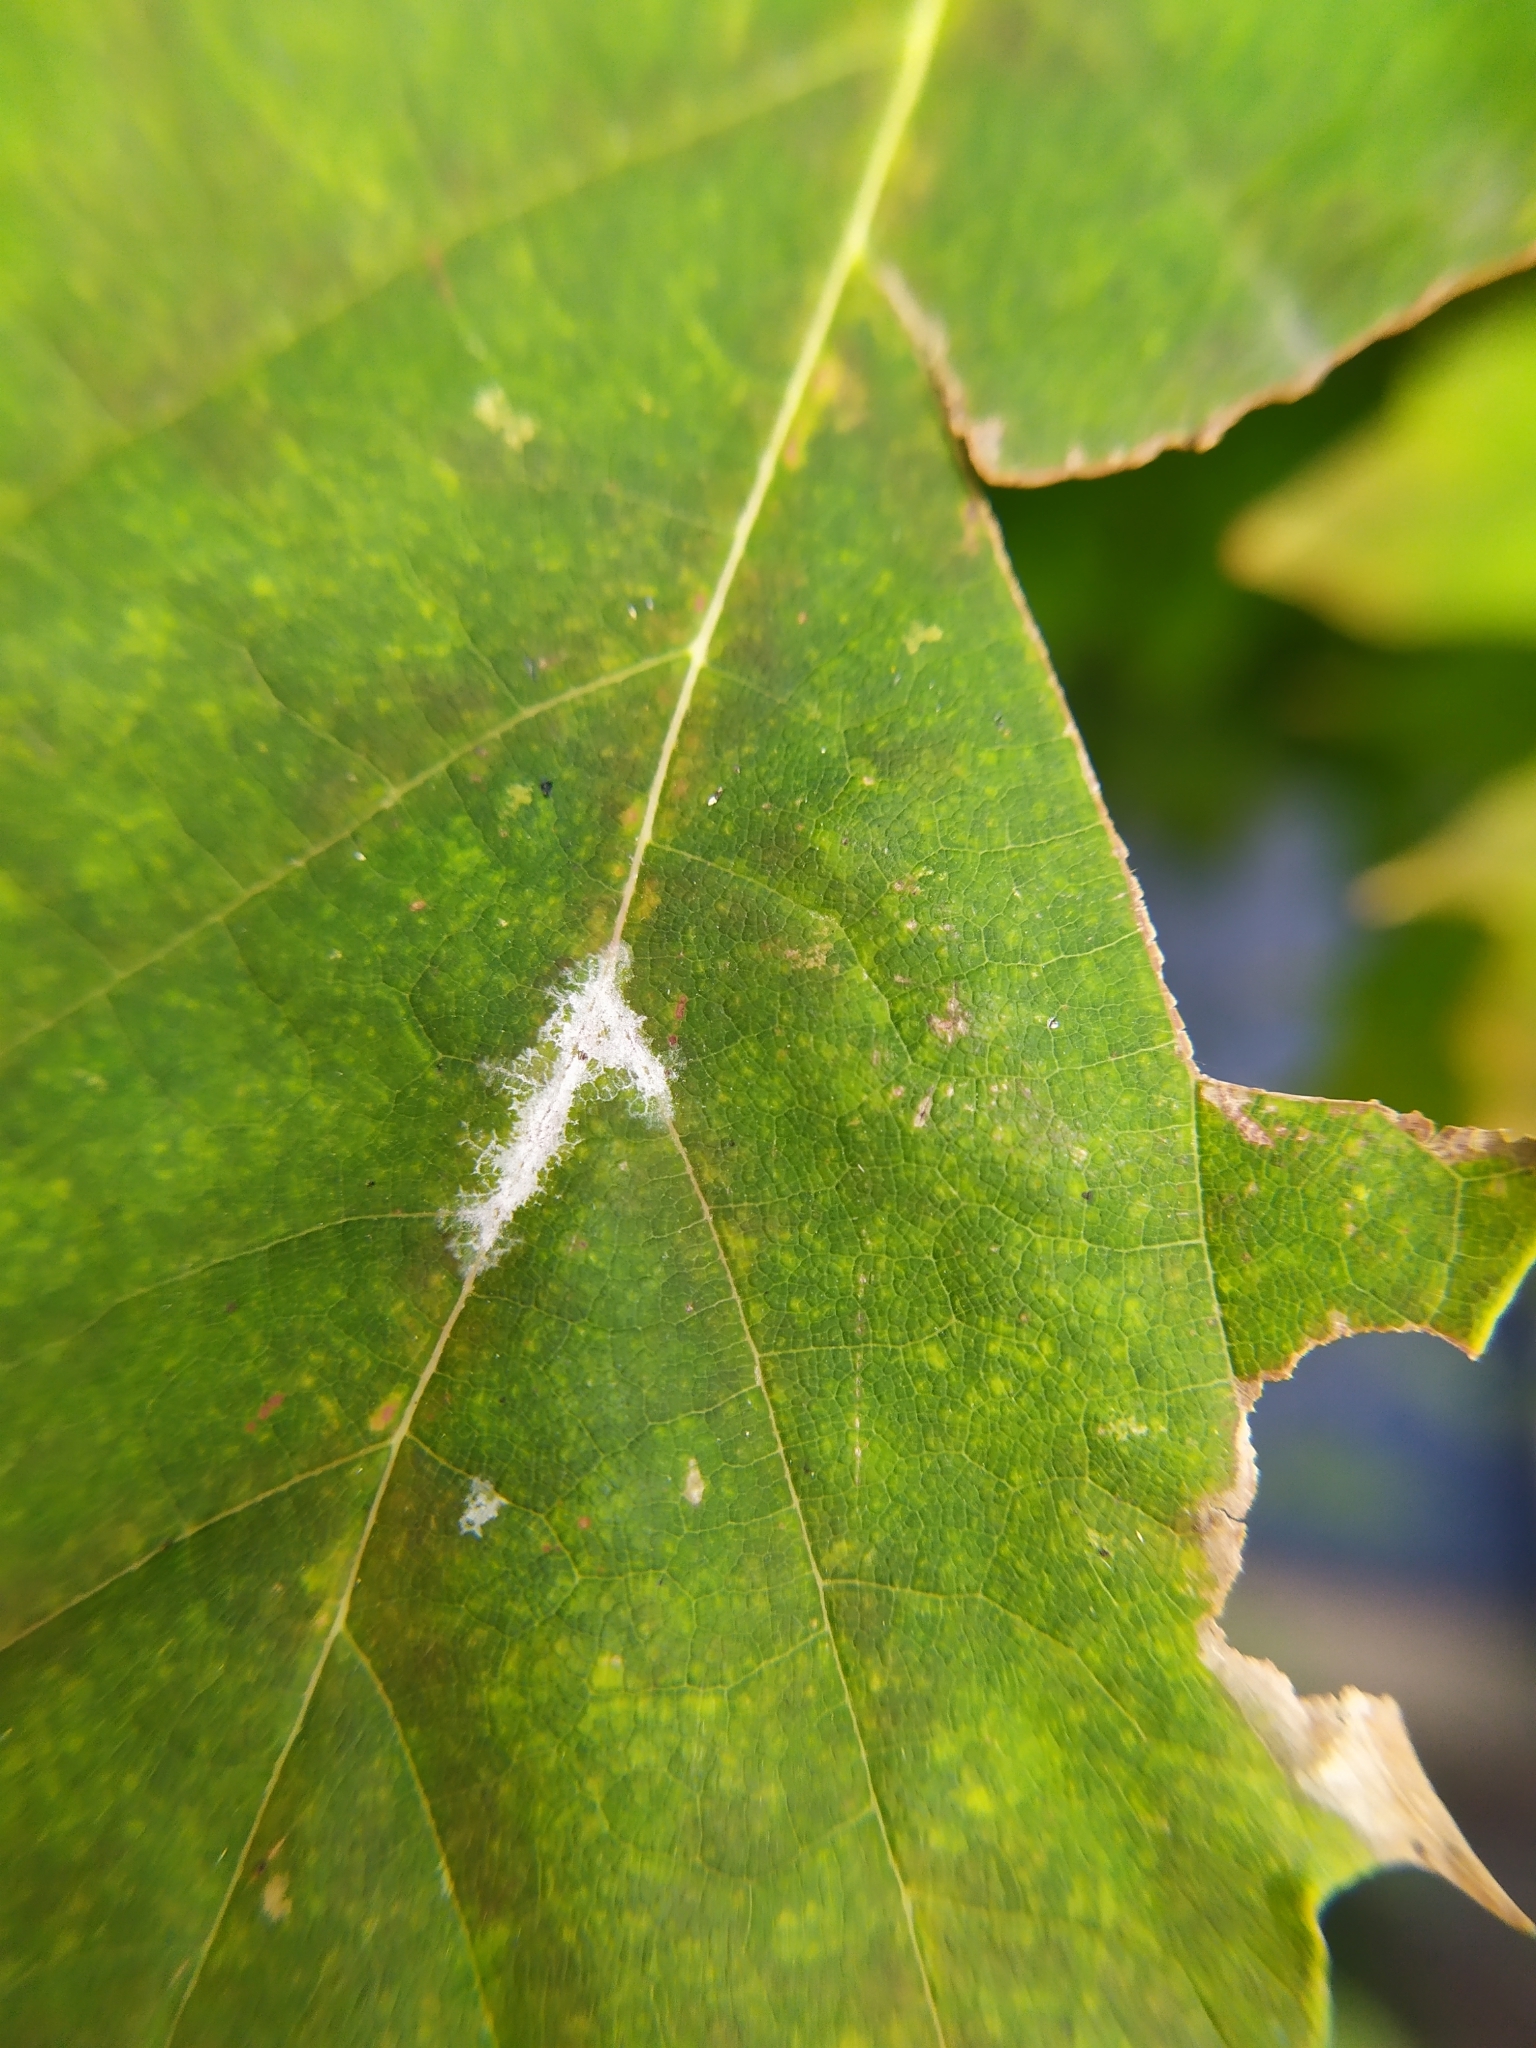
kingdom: Fungi
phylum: Ascomycota
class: Leotiomycetes
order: Helotiales
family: Erysiphaceae
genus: Sawadaea
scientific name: Sawadaea tulasnei
